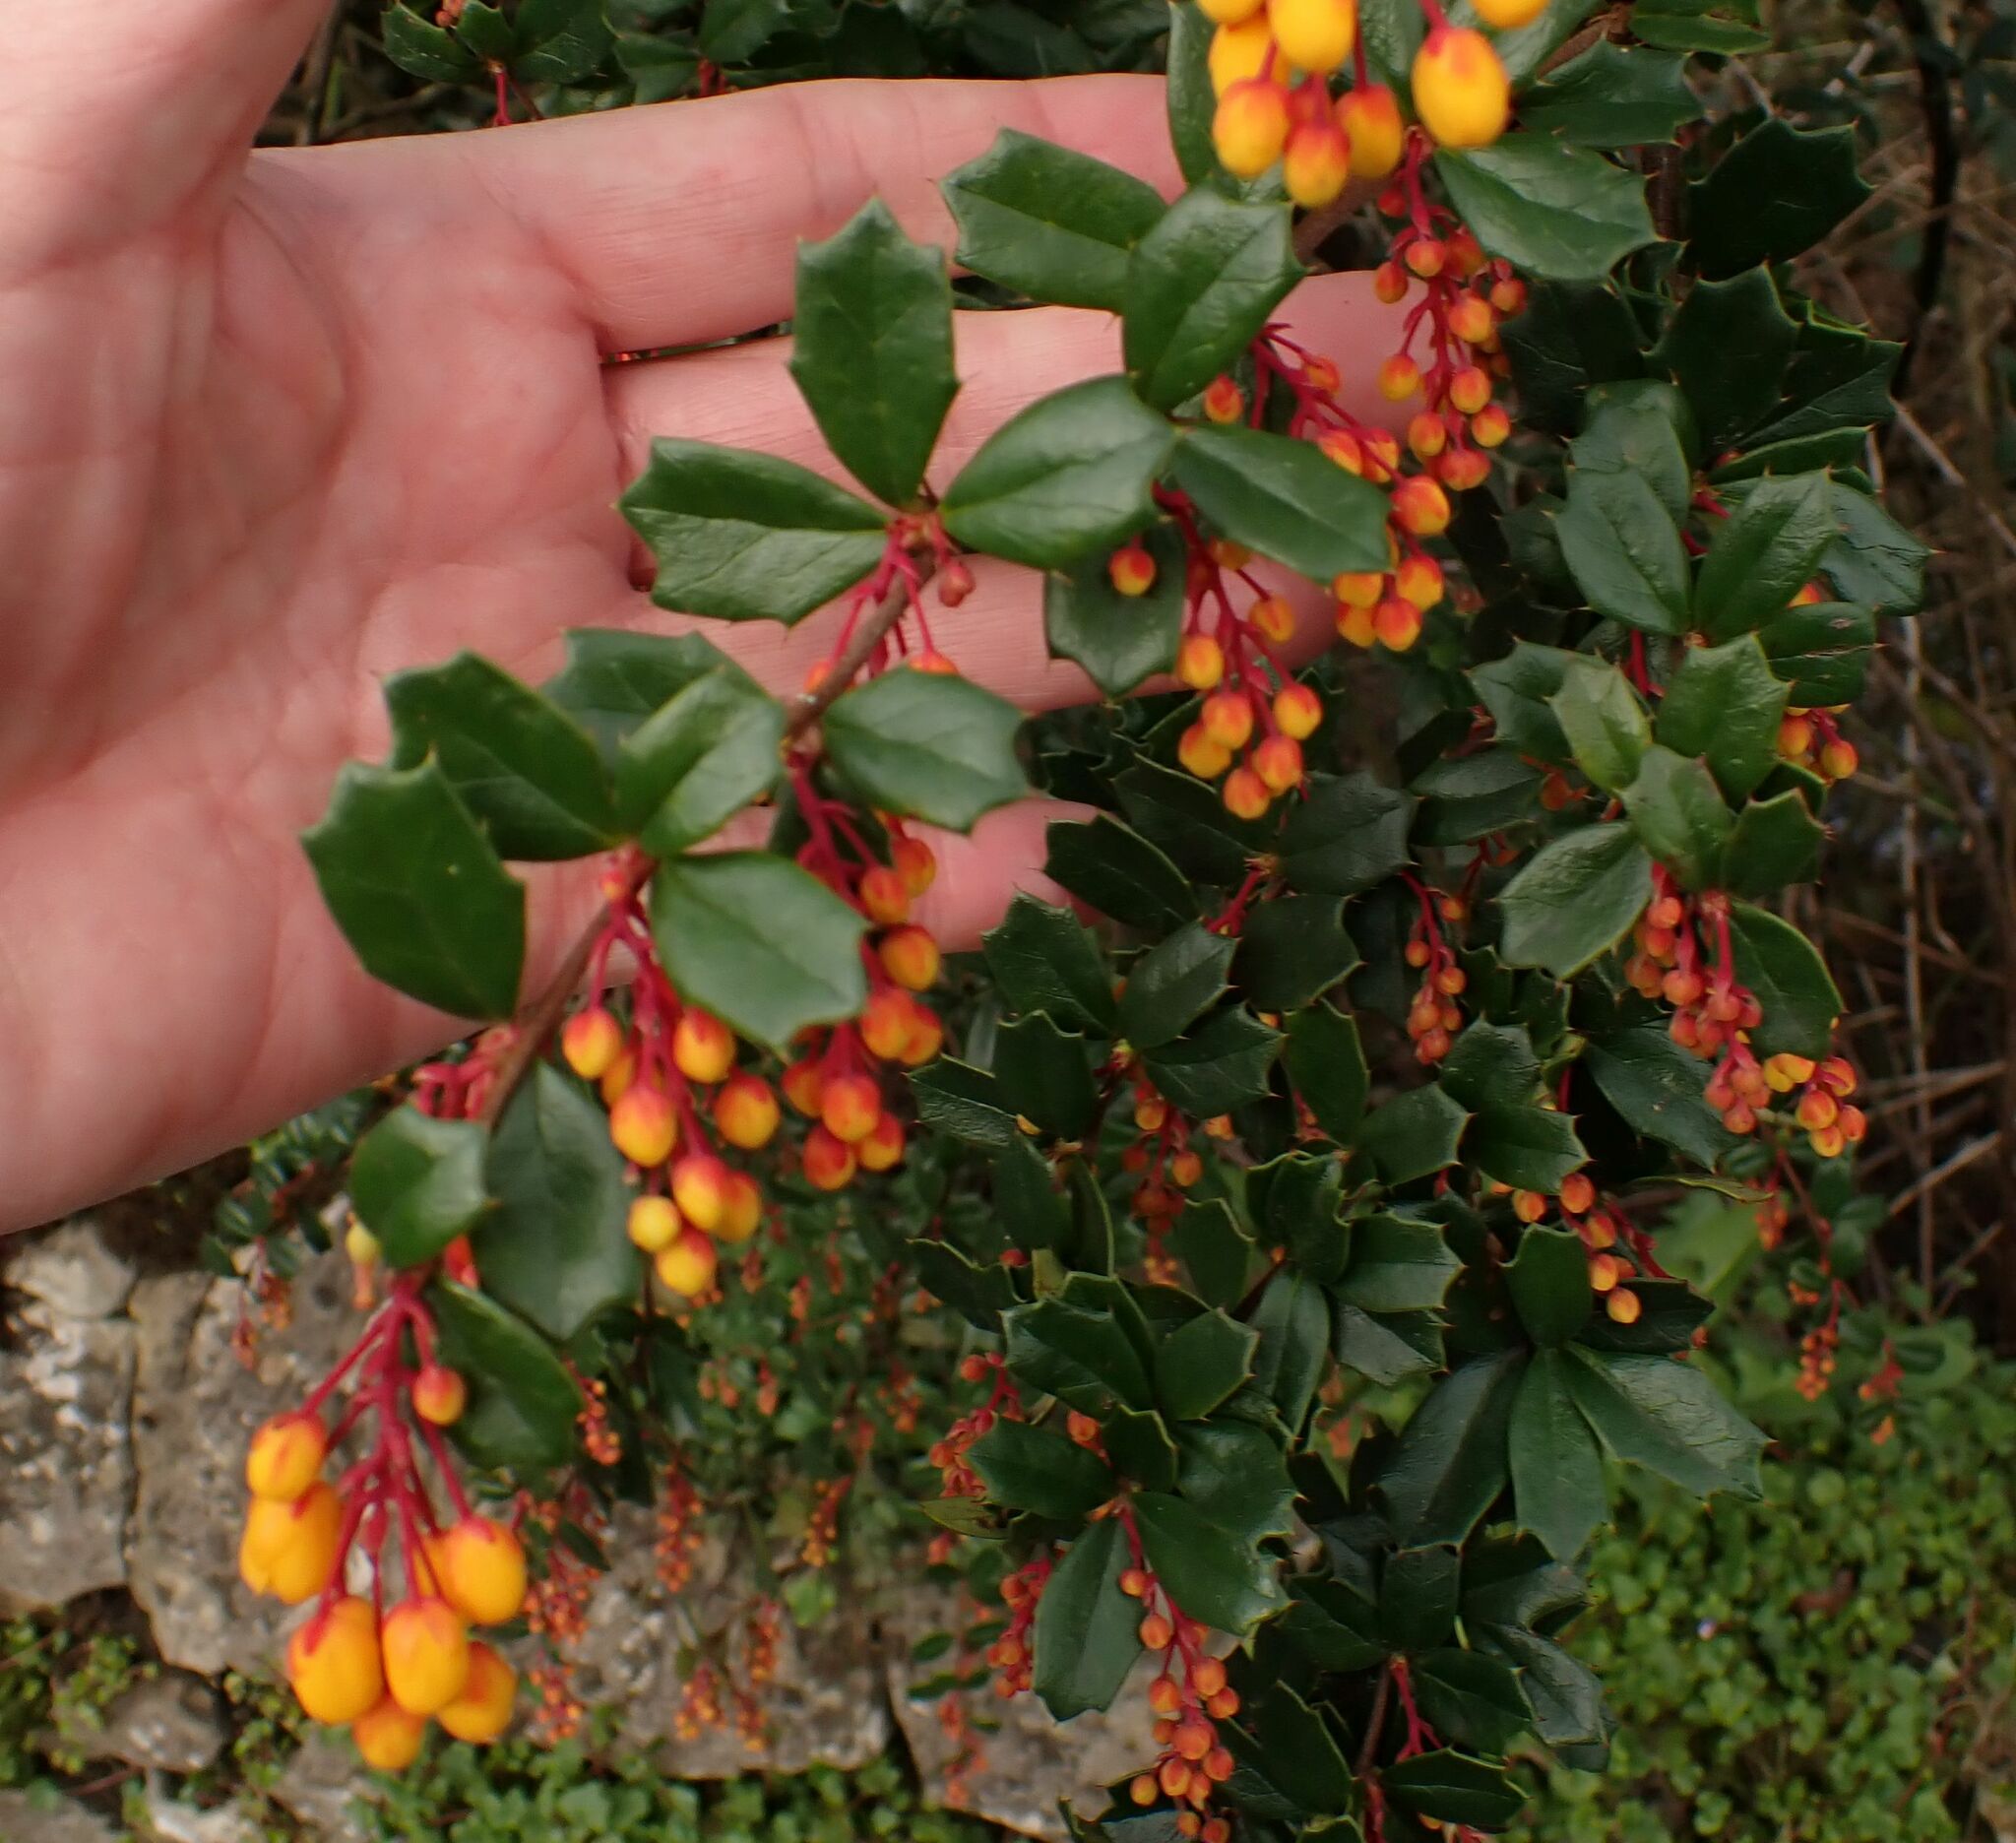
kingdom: Plantae
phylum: Tracheophyta
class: Magnoliopsida
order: Ranunculales
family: Berberidaceae
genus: Berberis
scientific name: Berberis darwinii
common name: Darwin's barberry
